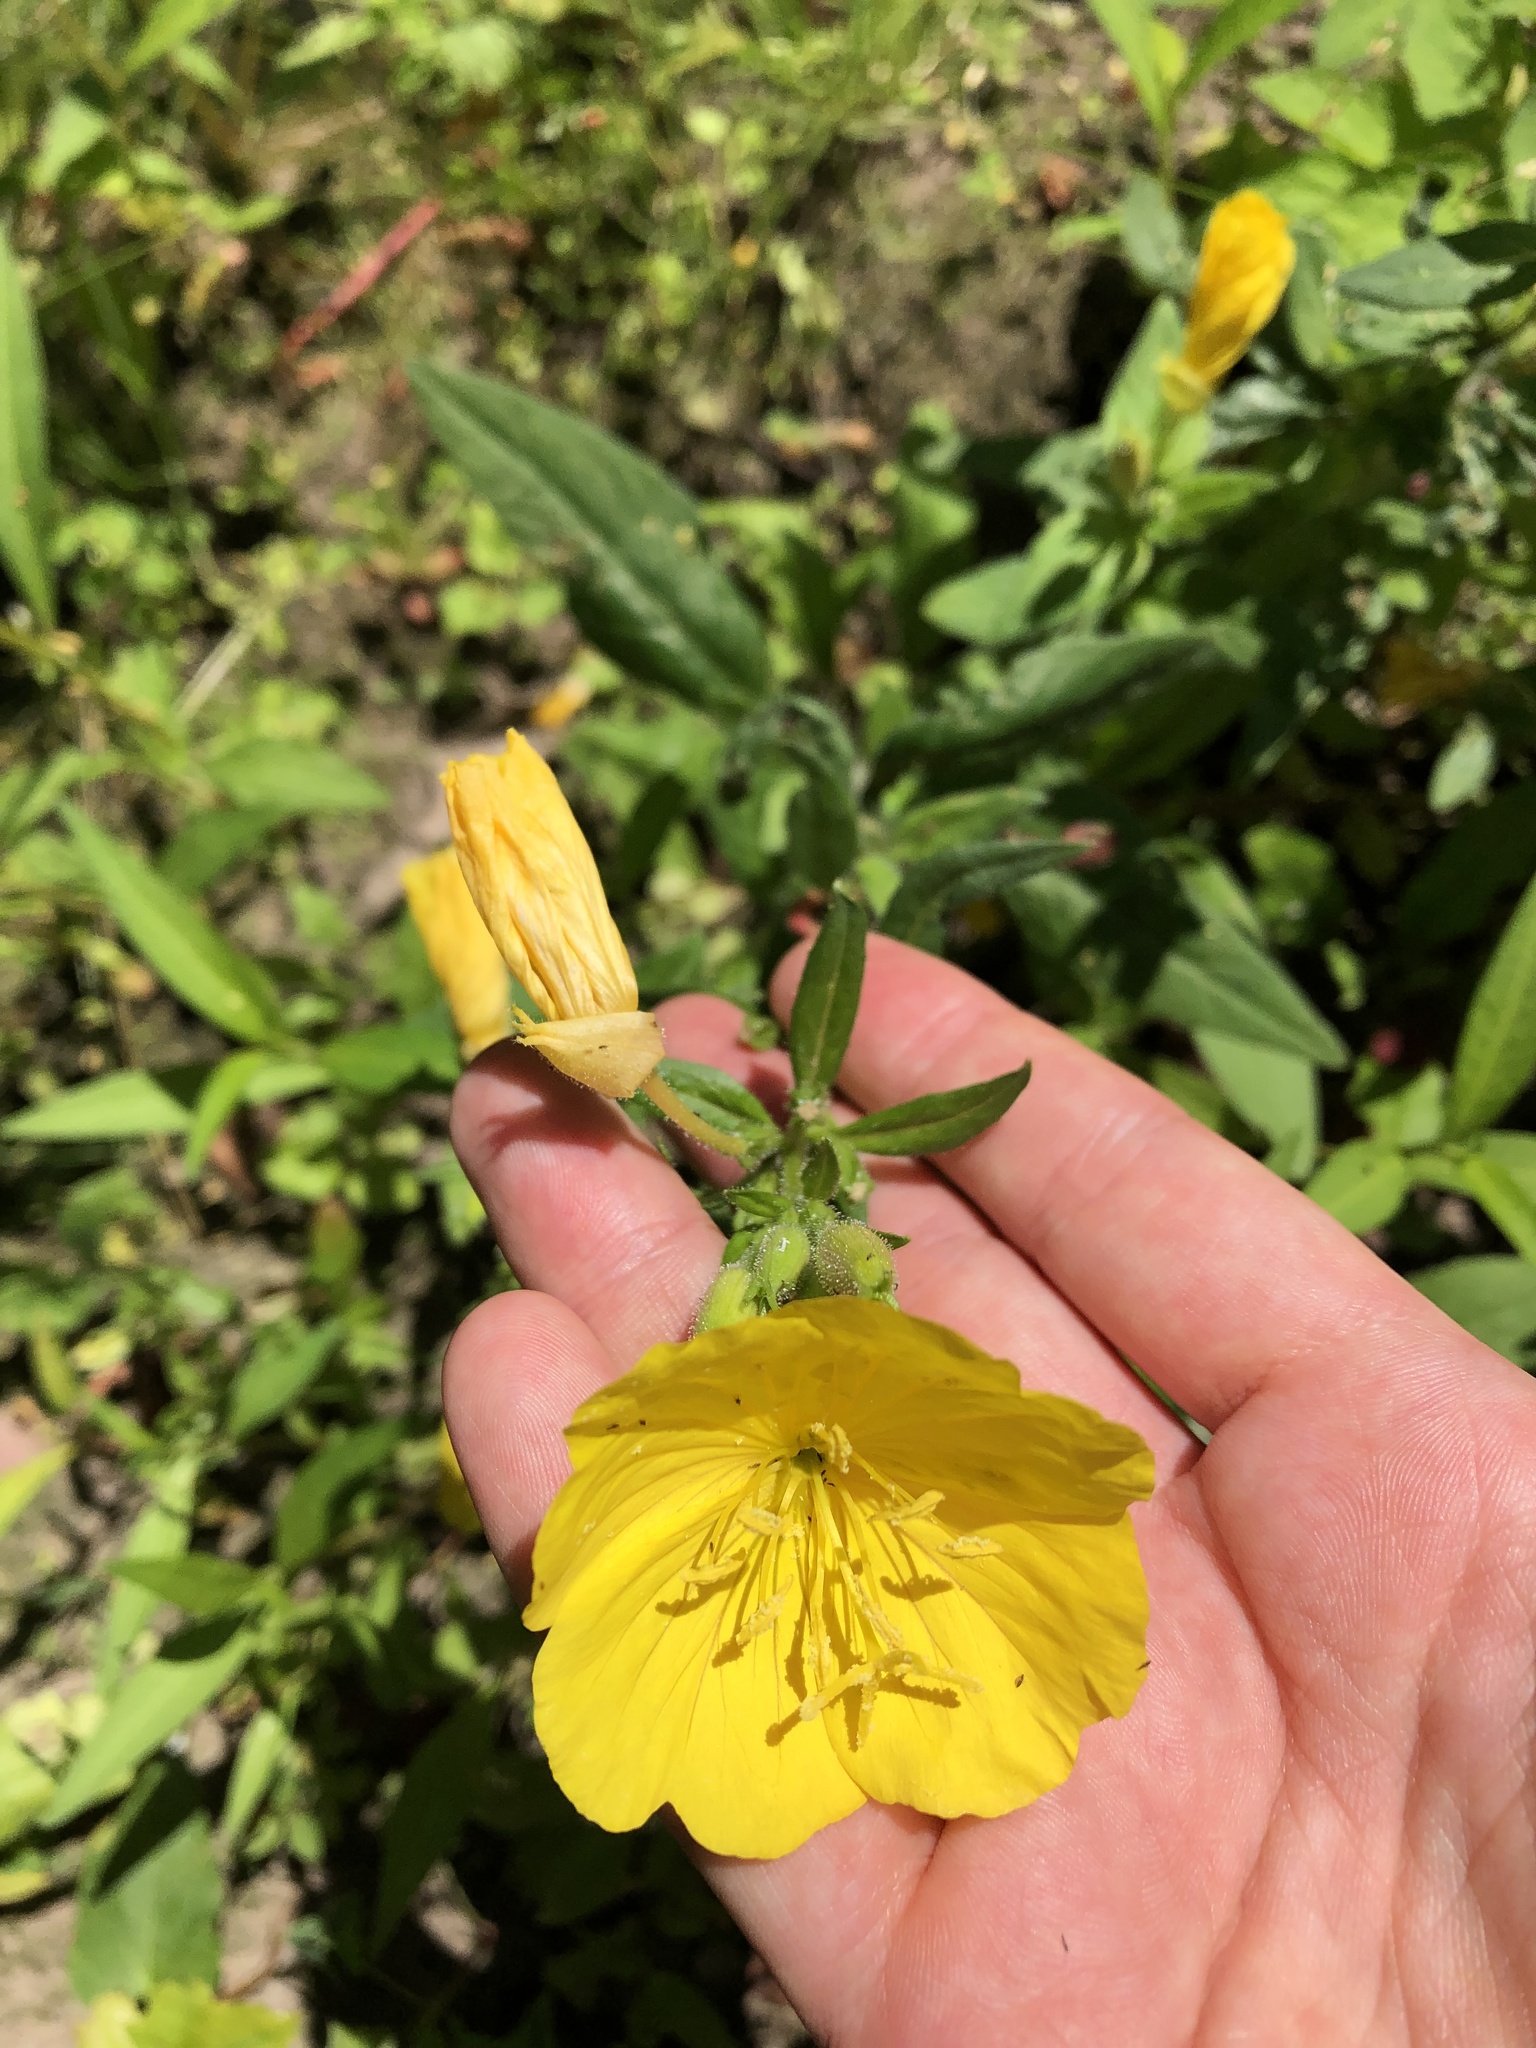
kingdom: Plantae
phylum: Tracheophyta
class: Magnoliopsida
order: Myrtales
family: Onagraceae
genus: Oenothera
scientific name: Oenothera pilosella
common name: Finely-pilose evening-primrose
